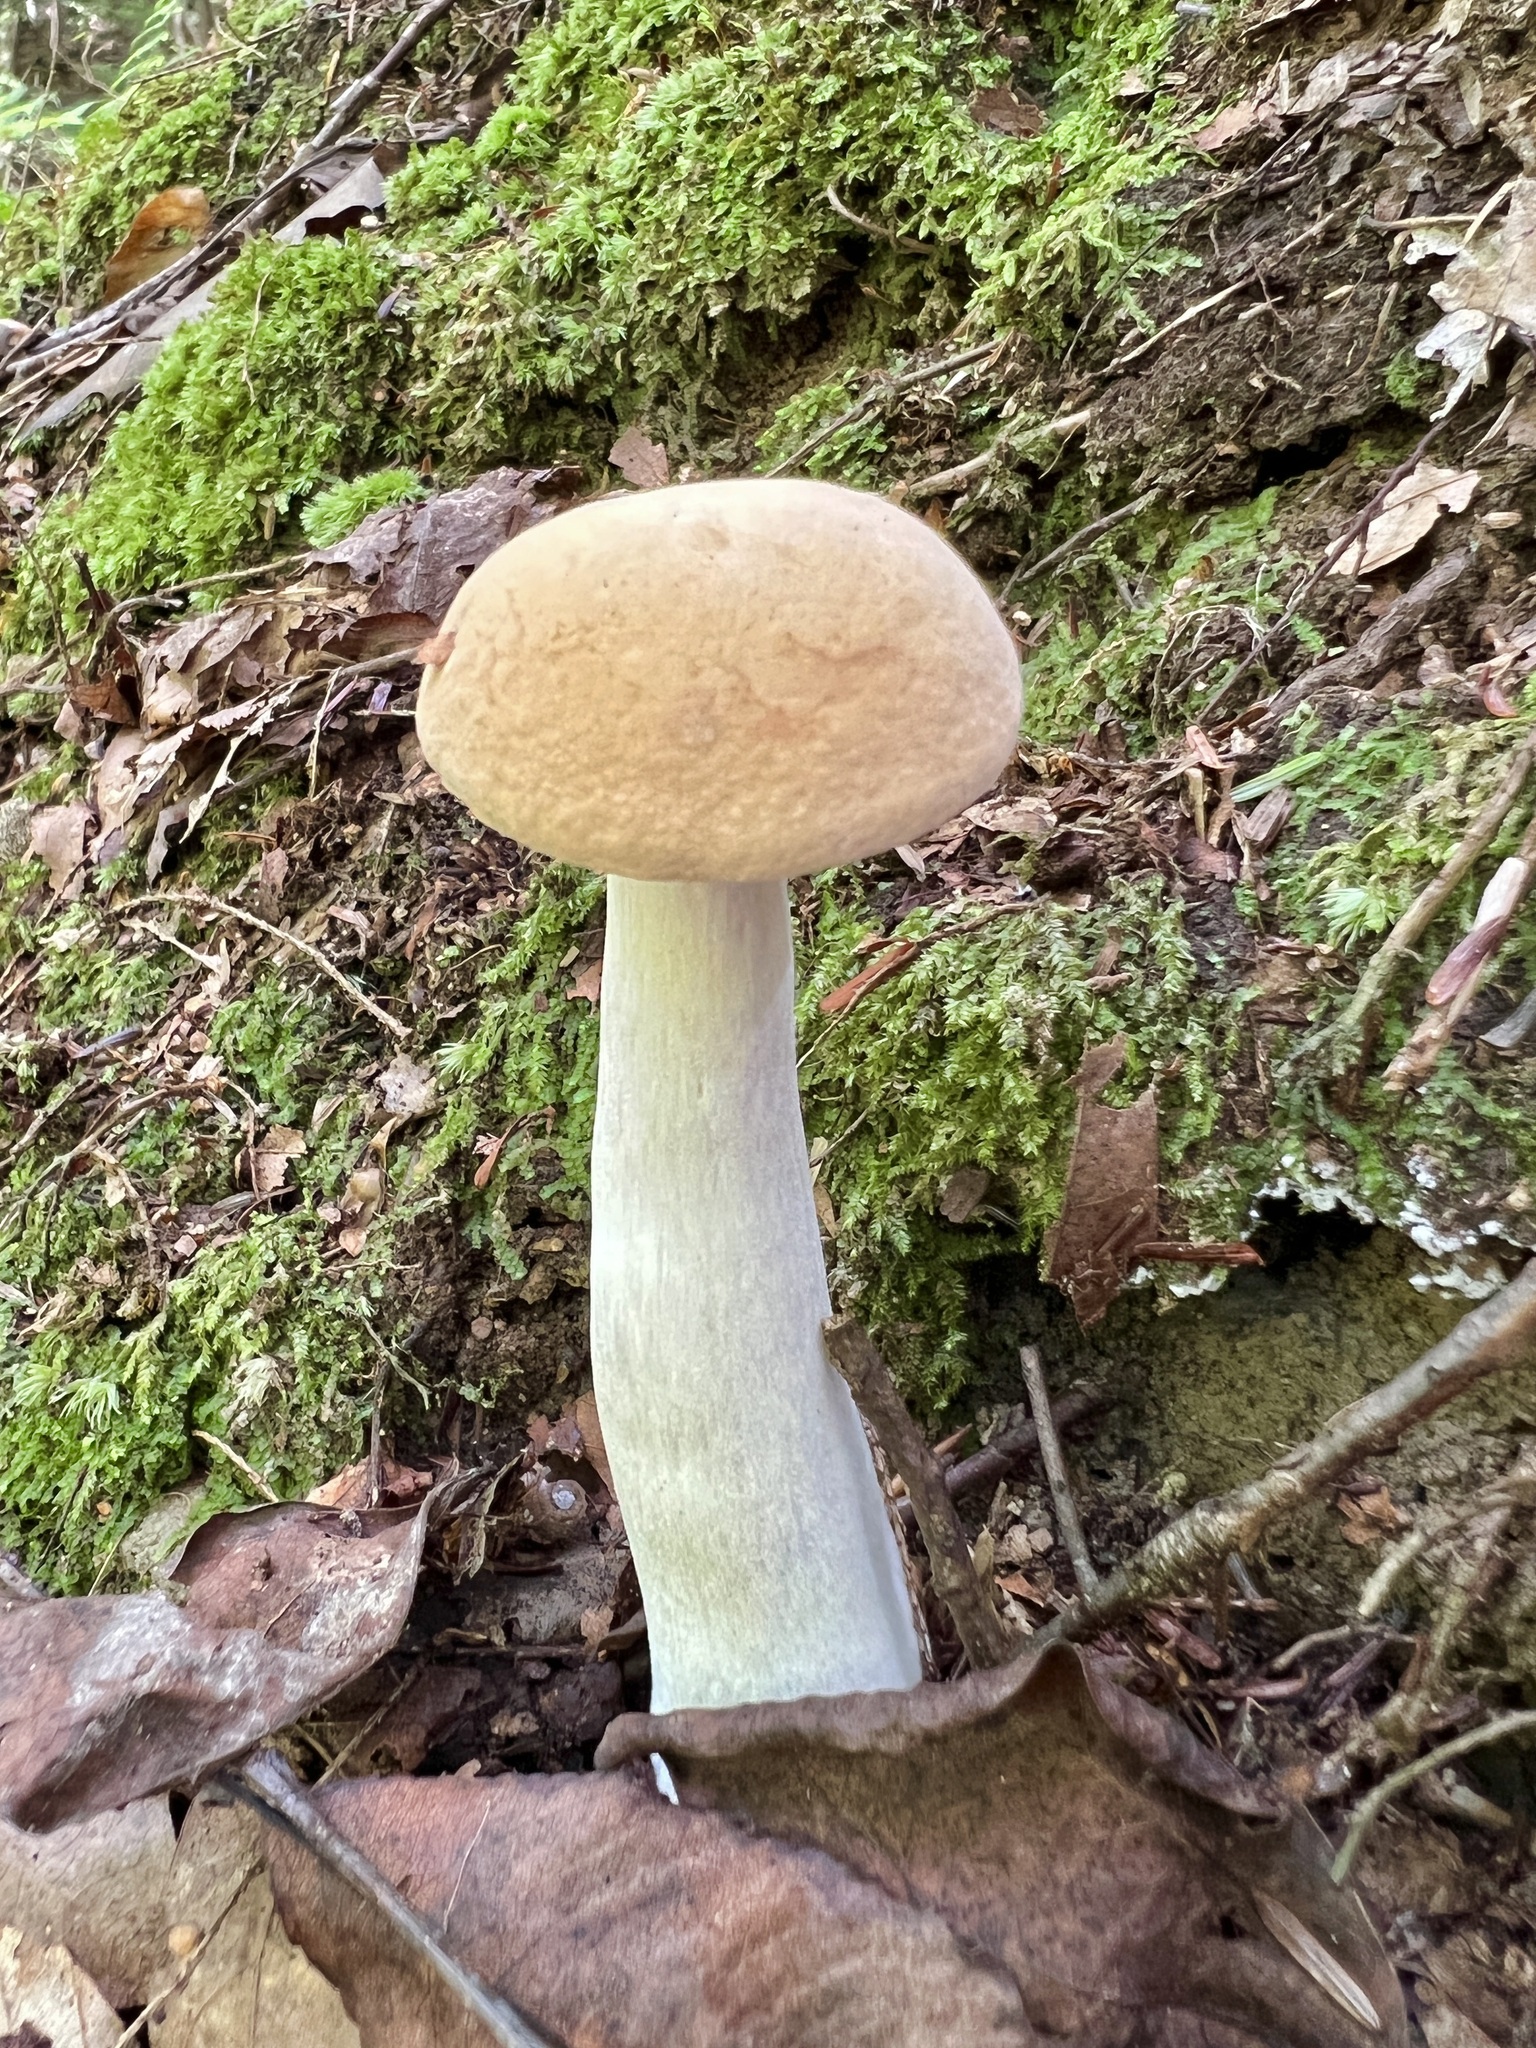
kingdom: Fungi
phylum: Basidiomycota
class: Agaricomycetes
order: Boletales
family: Boletaceae
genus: Imleria
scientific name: Imleria pallida
